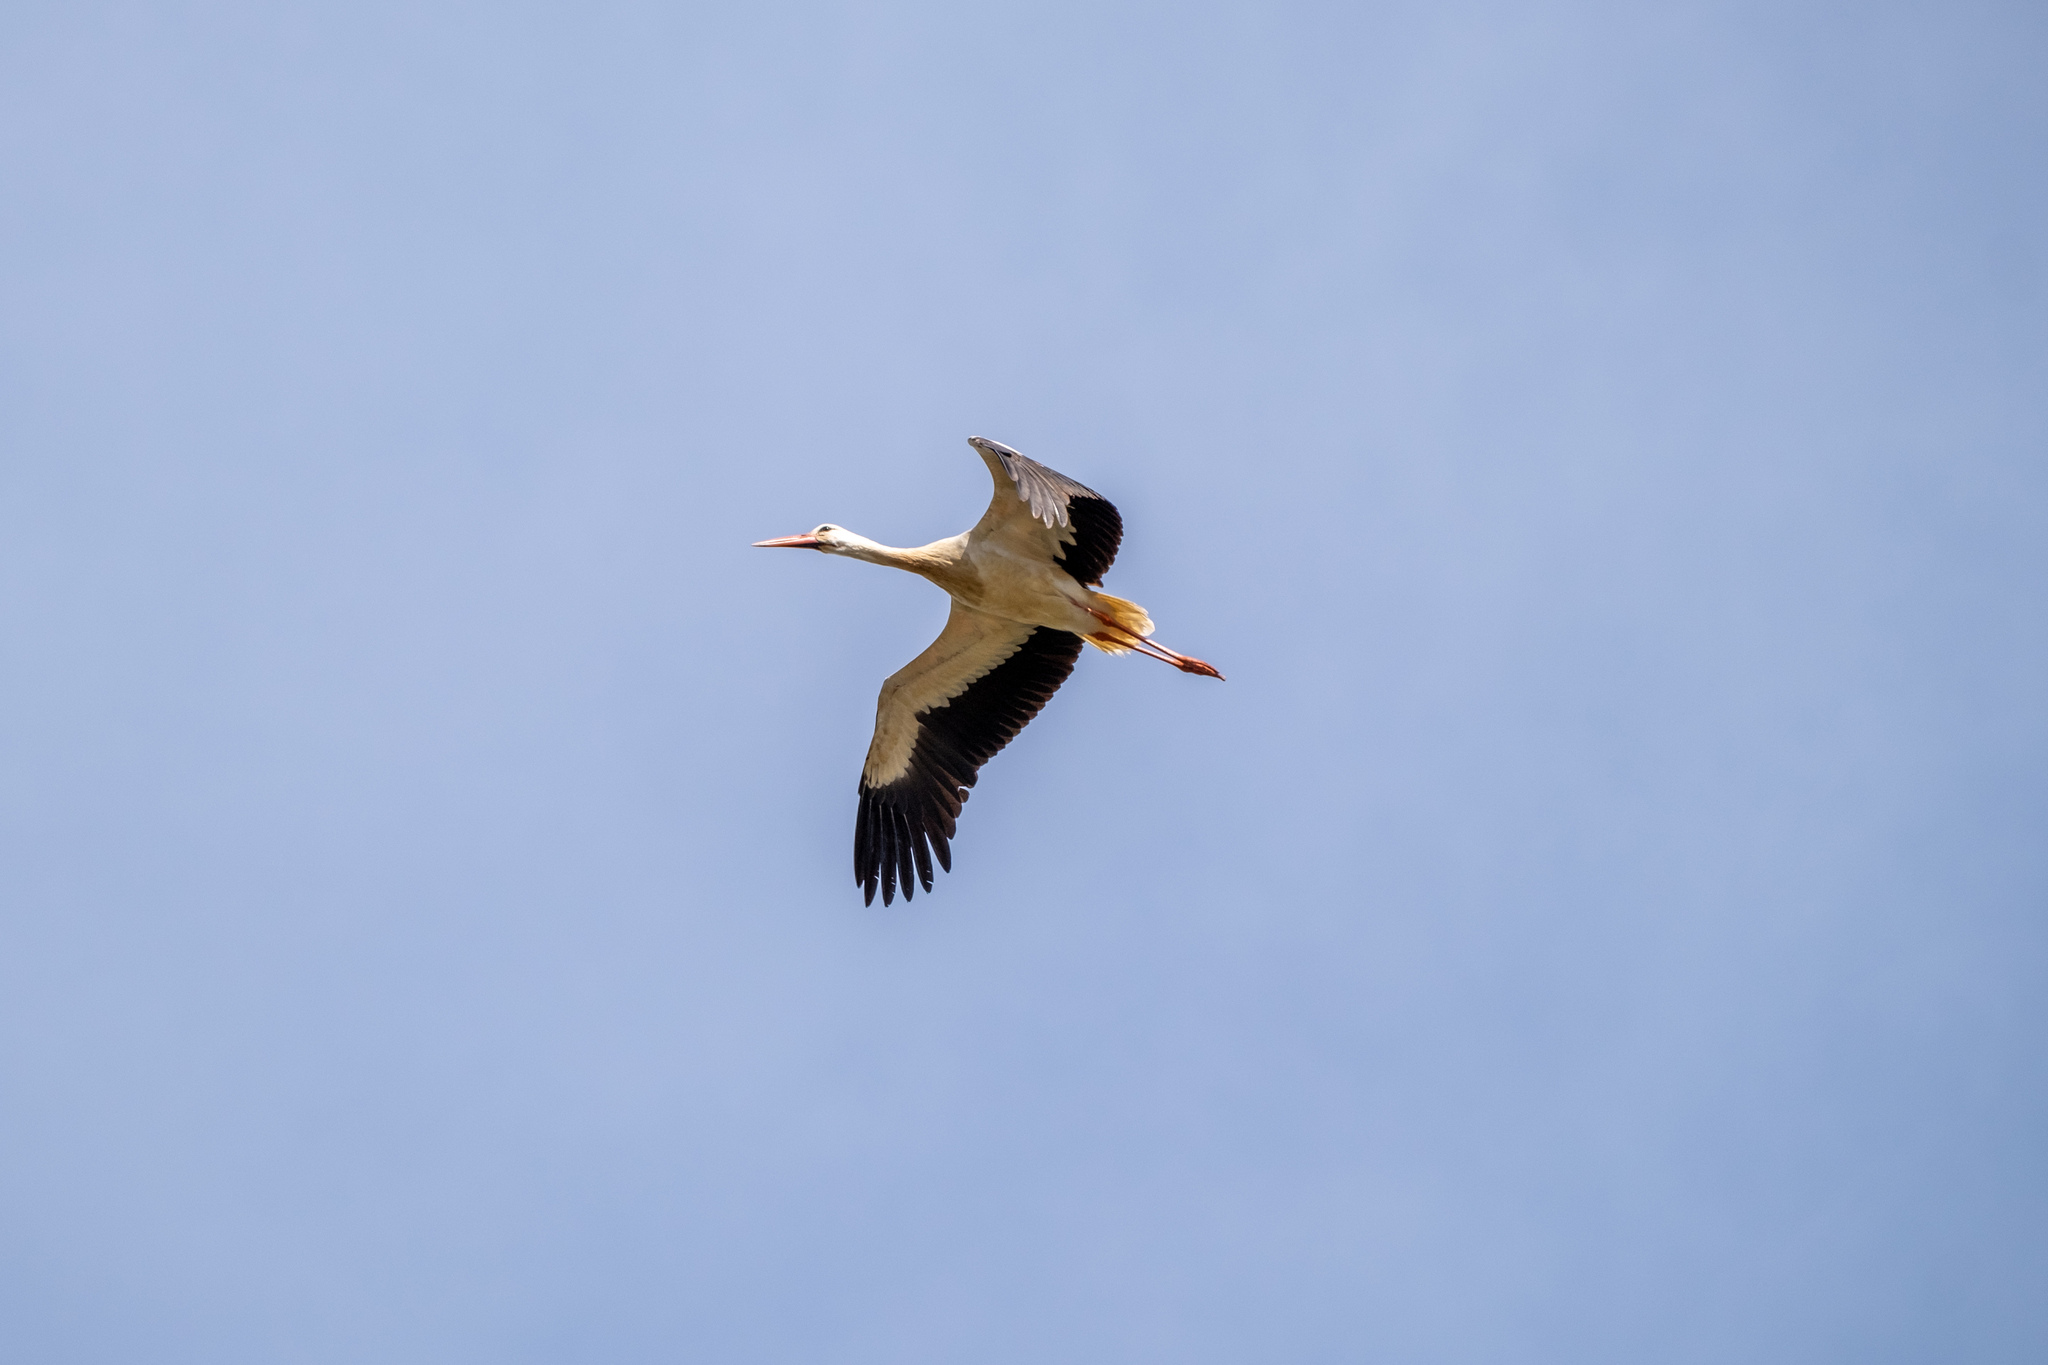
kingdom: Animalia
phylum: Chordata
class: Aves
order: Ciconiiformes
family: Ciconiidae
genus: Ciconia
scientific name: Ciconia ciconia
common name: White stork
